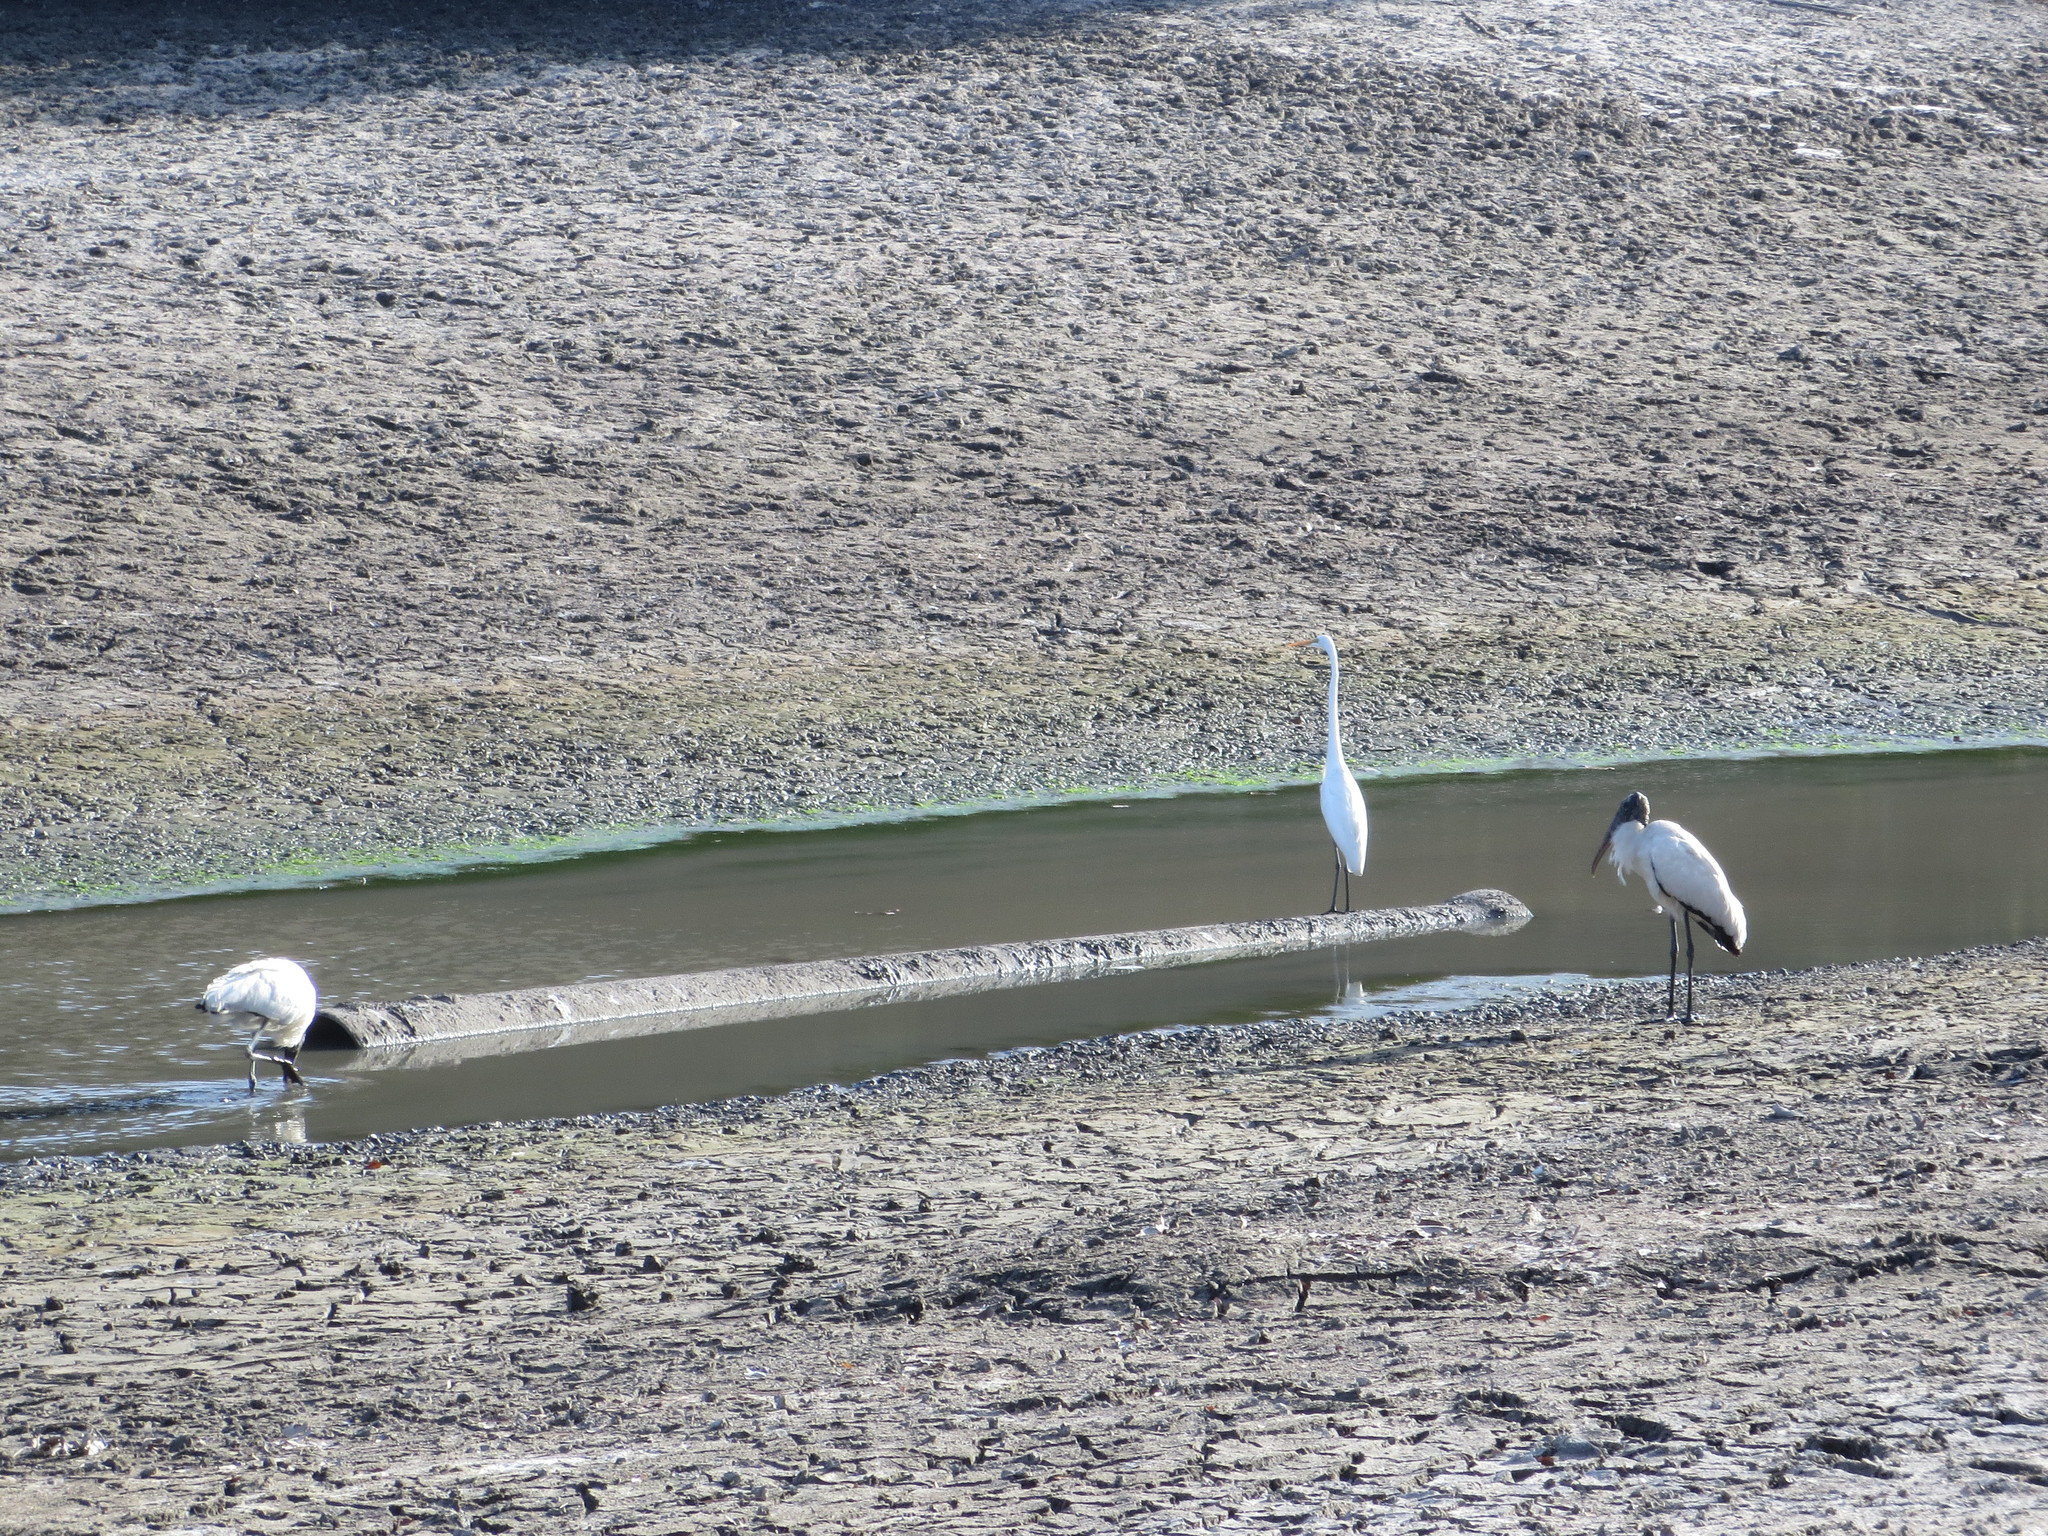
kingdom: Animalia
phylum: Chordata
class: Aves
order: Pelecaniformes
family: Ardeidae
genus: Ardea
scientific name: Ardea alba
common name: Great egret
